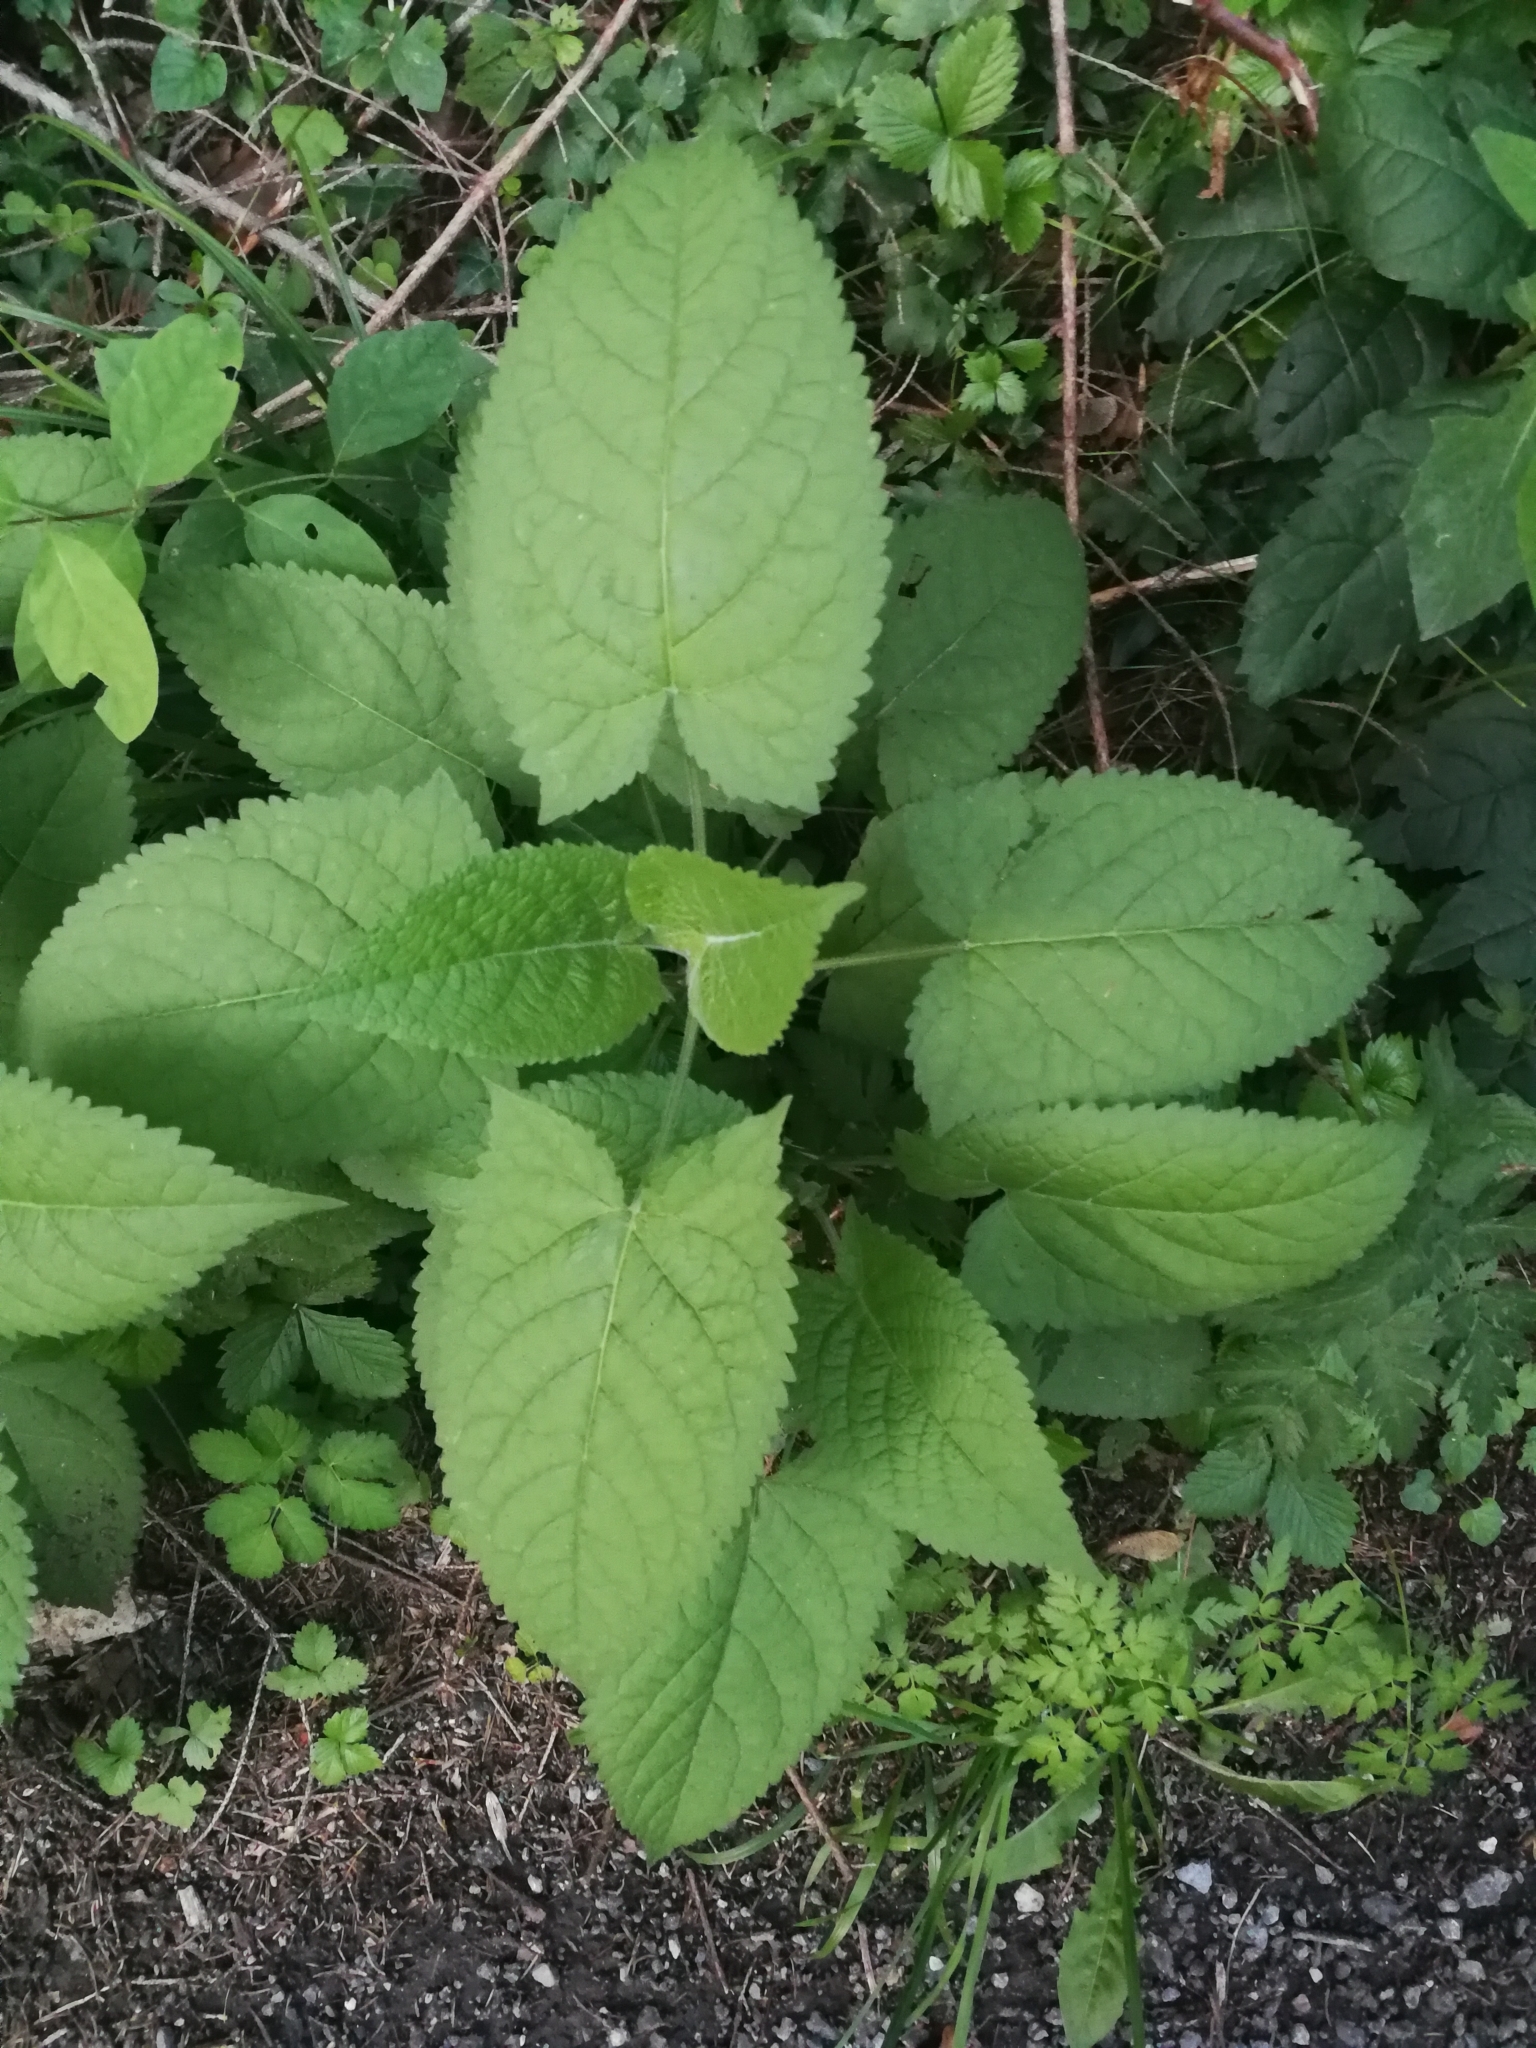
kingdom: Plantae
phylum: Tracheophyta
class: Magnoliopsida
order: Lamiales
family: Lamiaceae
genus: Salvia
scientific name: Salvia glutinosa
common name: Sticky clary
